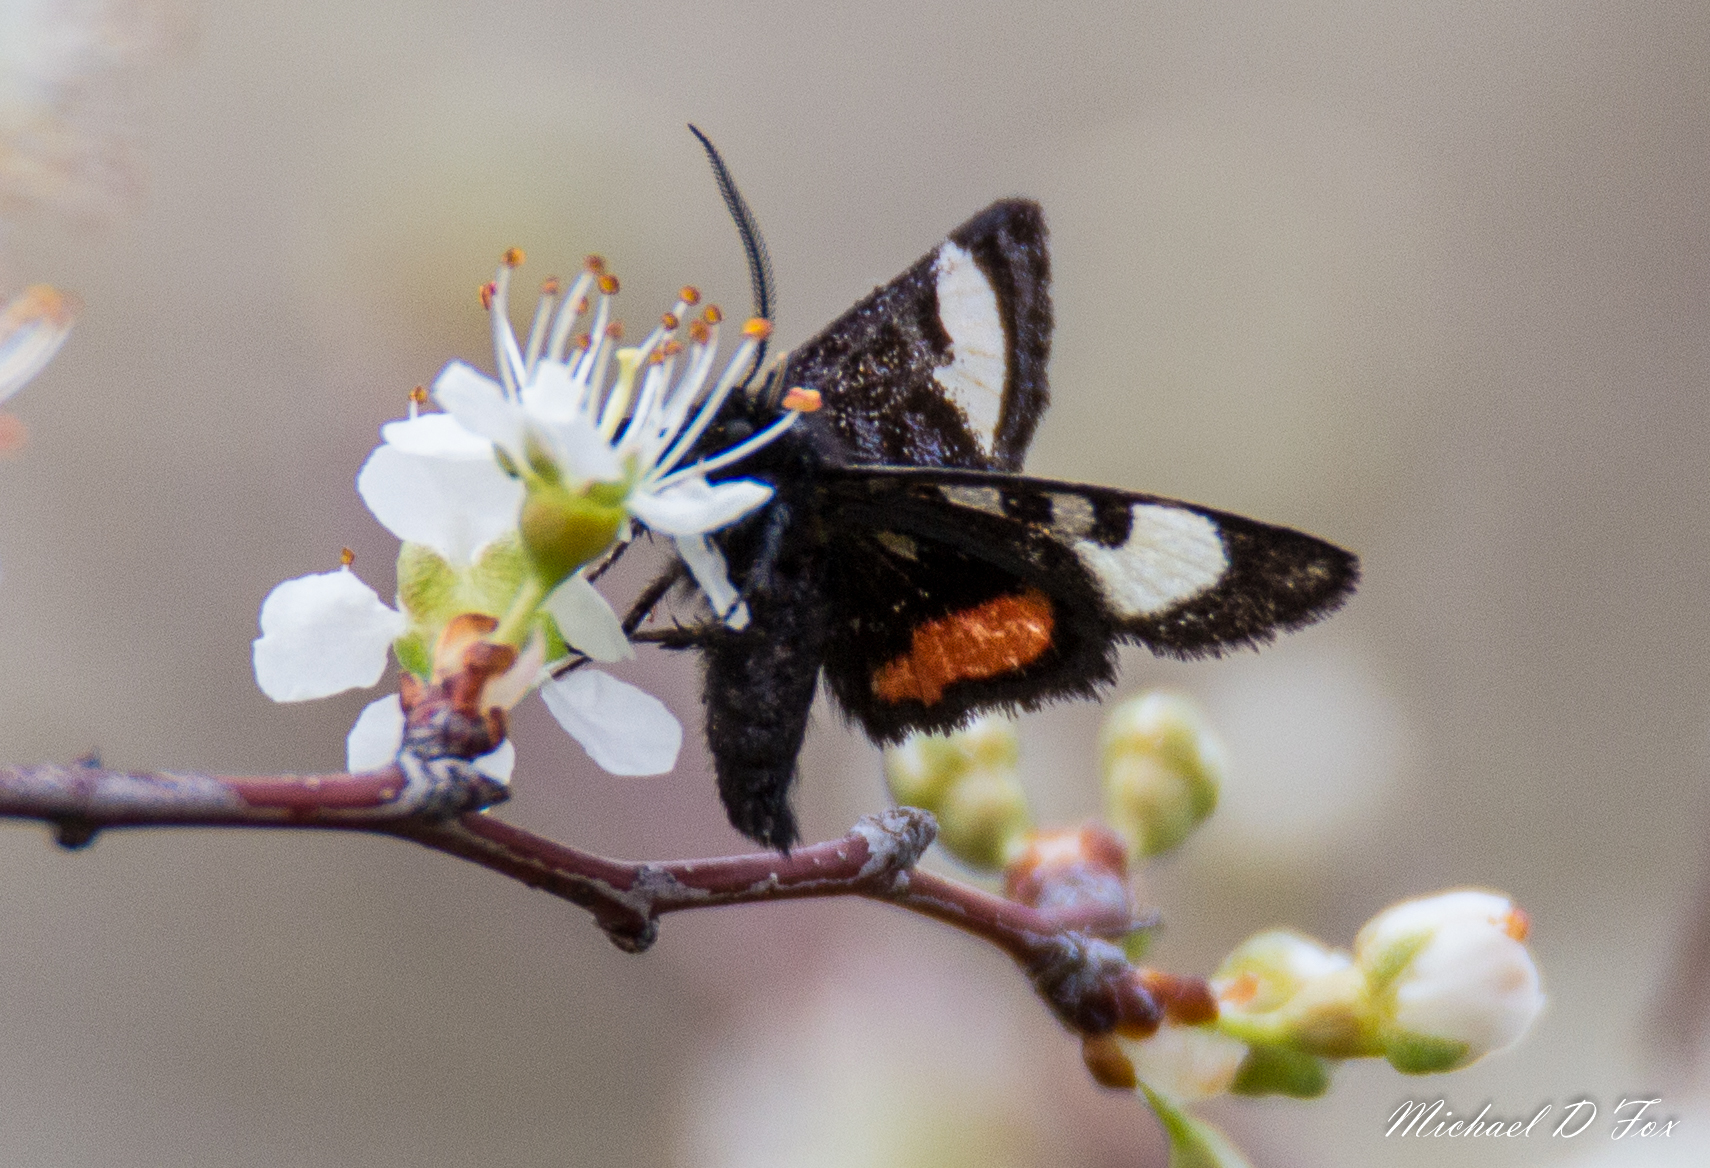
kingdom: Animalia
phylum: Arthropoda
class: Insecta
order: Lepidoptera
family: Noctuidae
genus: Psychomorpha
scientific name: Psychomorpha epimenis
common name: Grapevine epimenis moth
